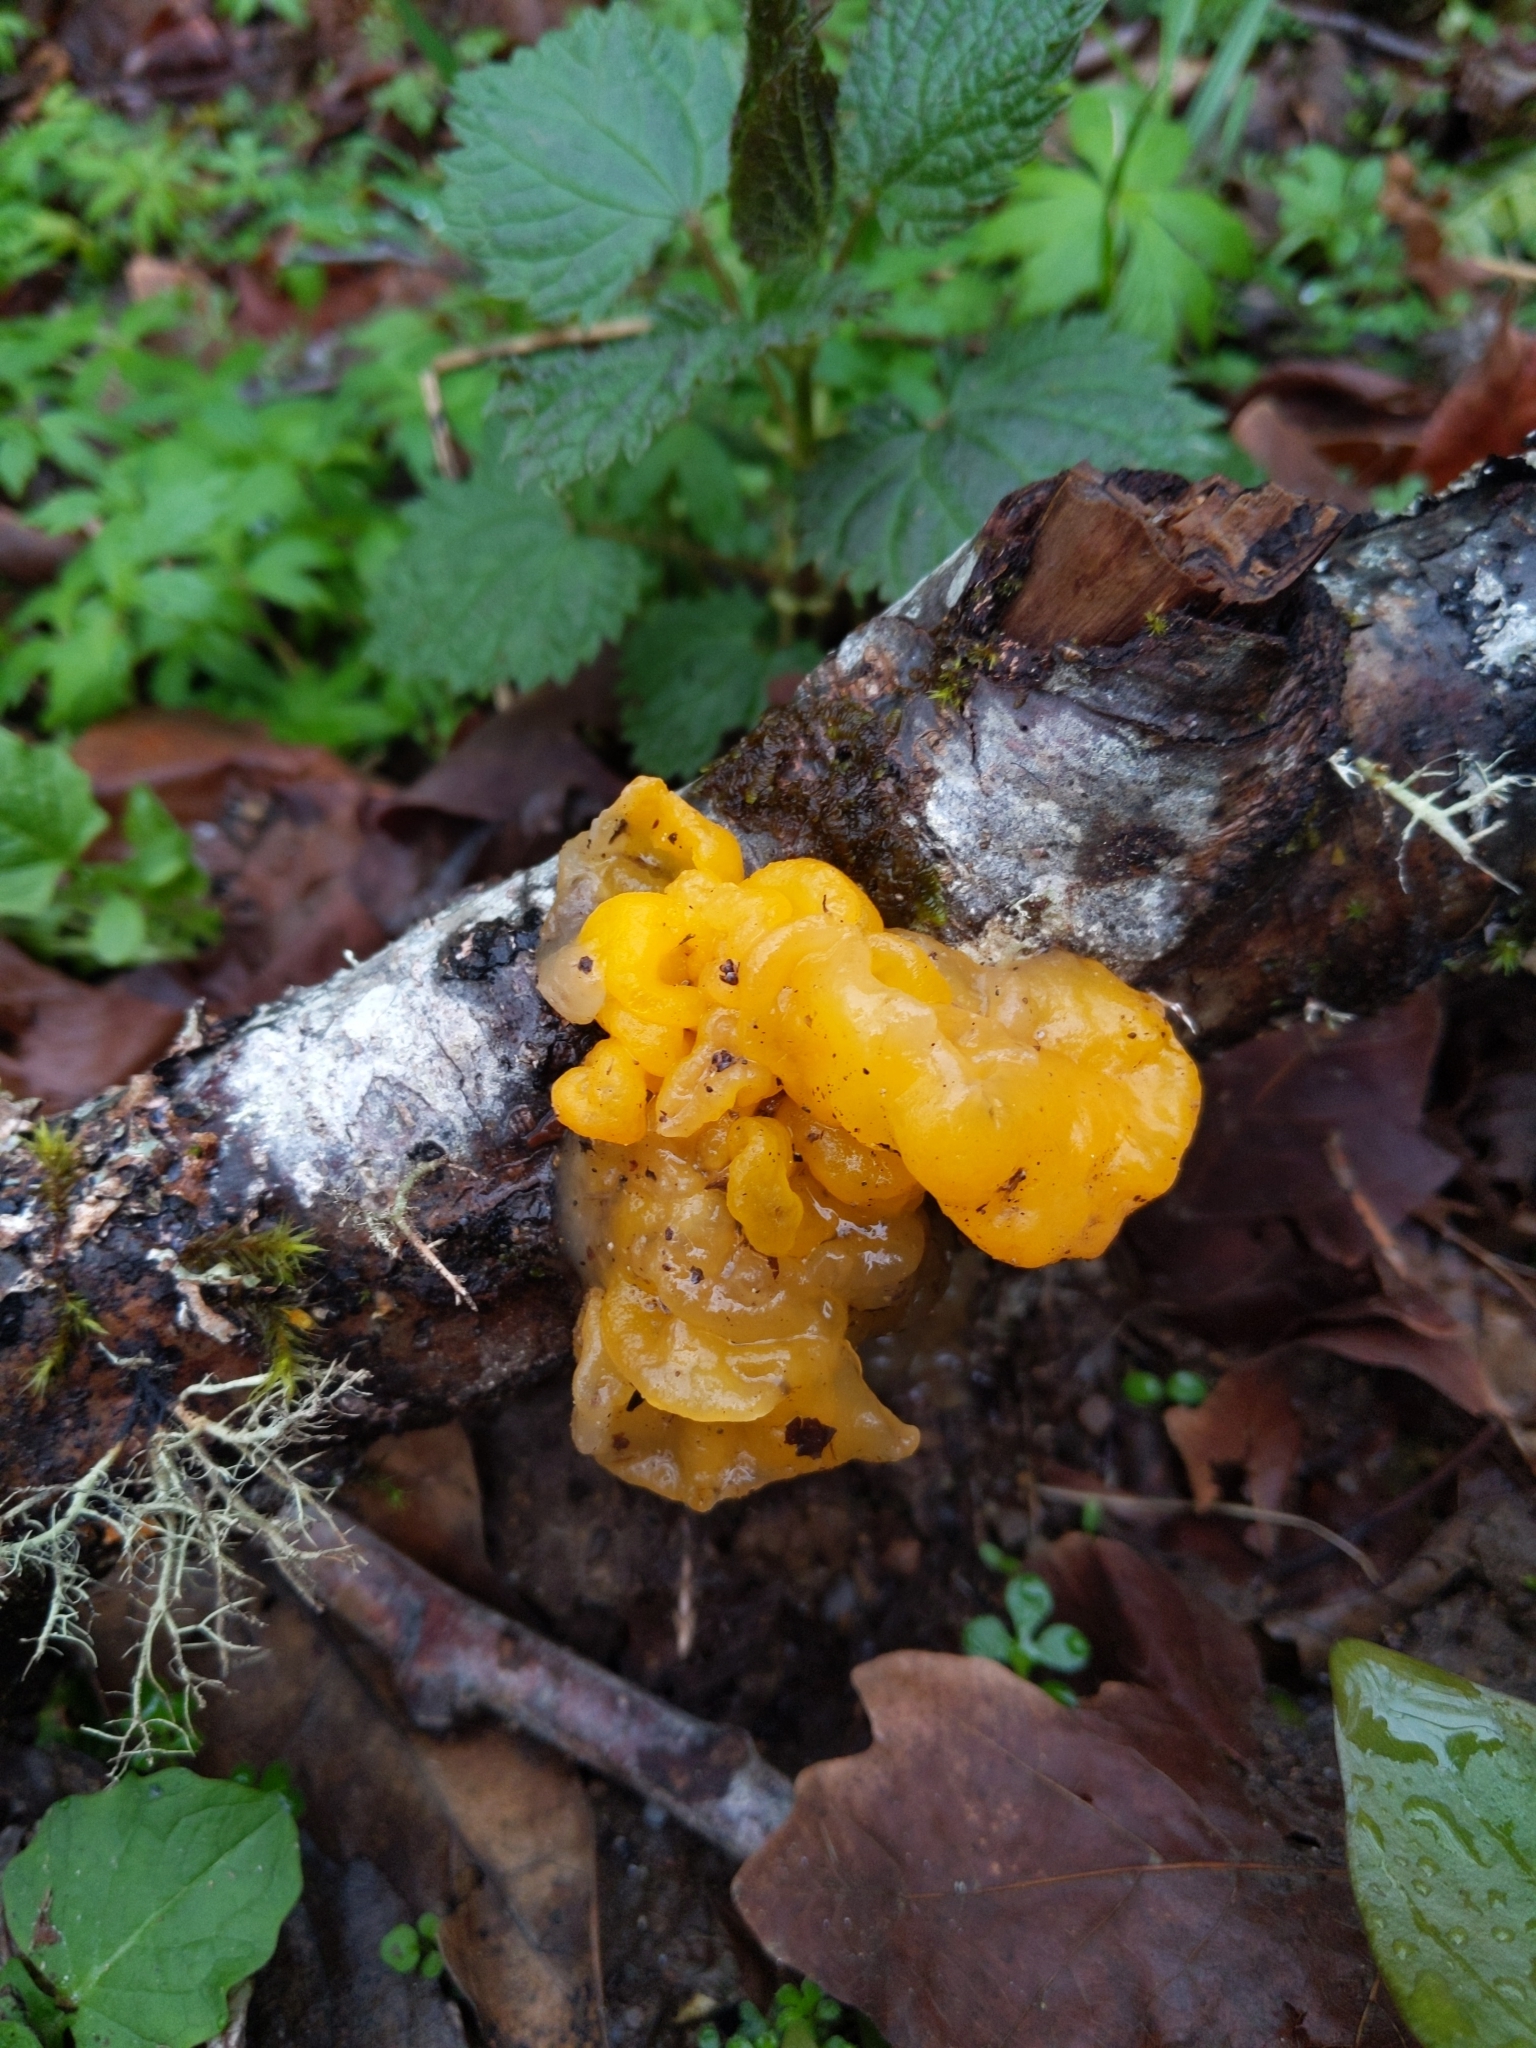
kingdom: Fungi
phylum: Basidiomycota
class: Tremellomycetes
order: Tremellales
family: Tremellaceae
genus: Tremella
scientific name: Tremella mesenterica
